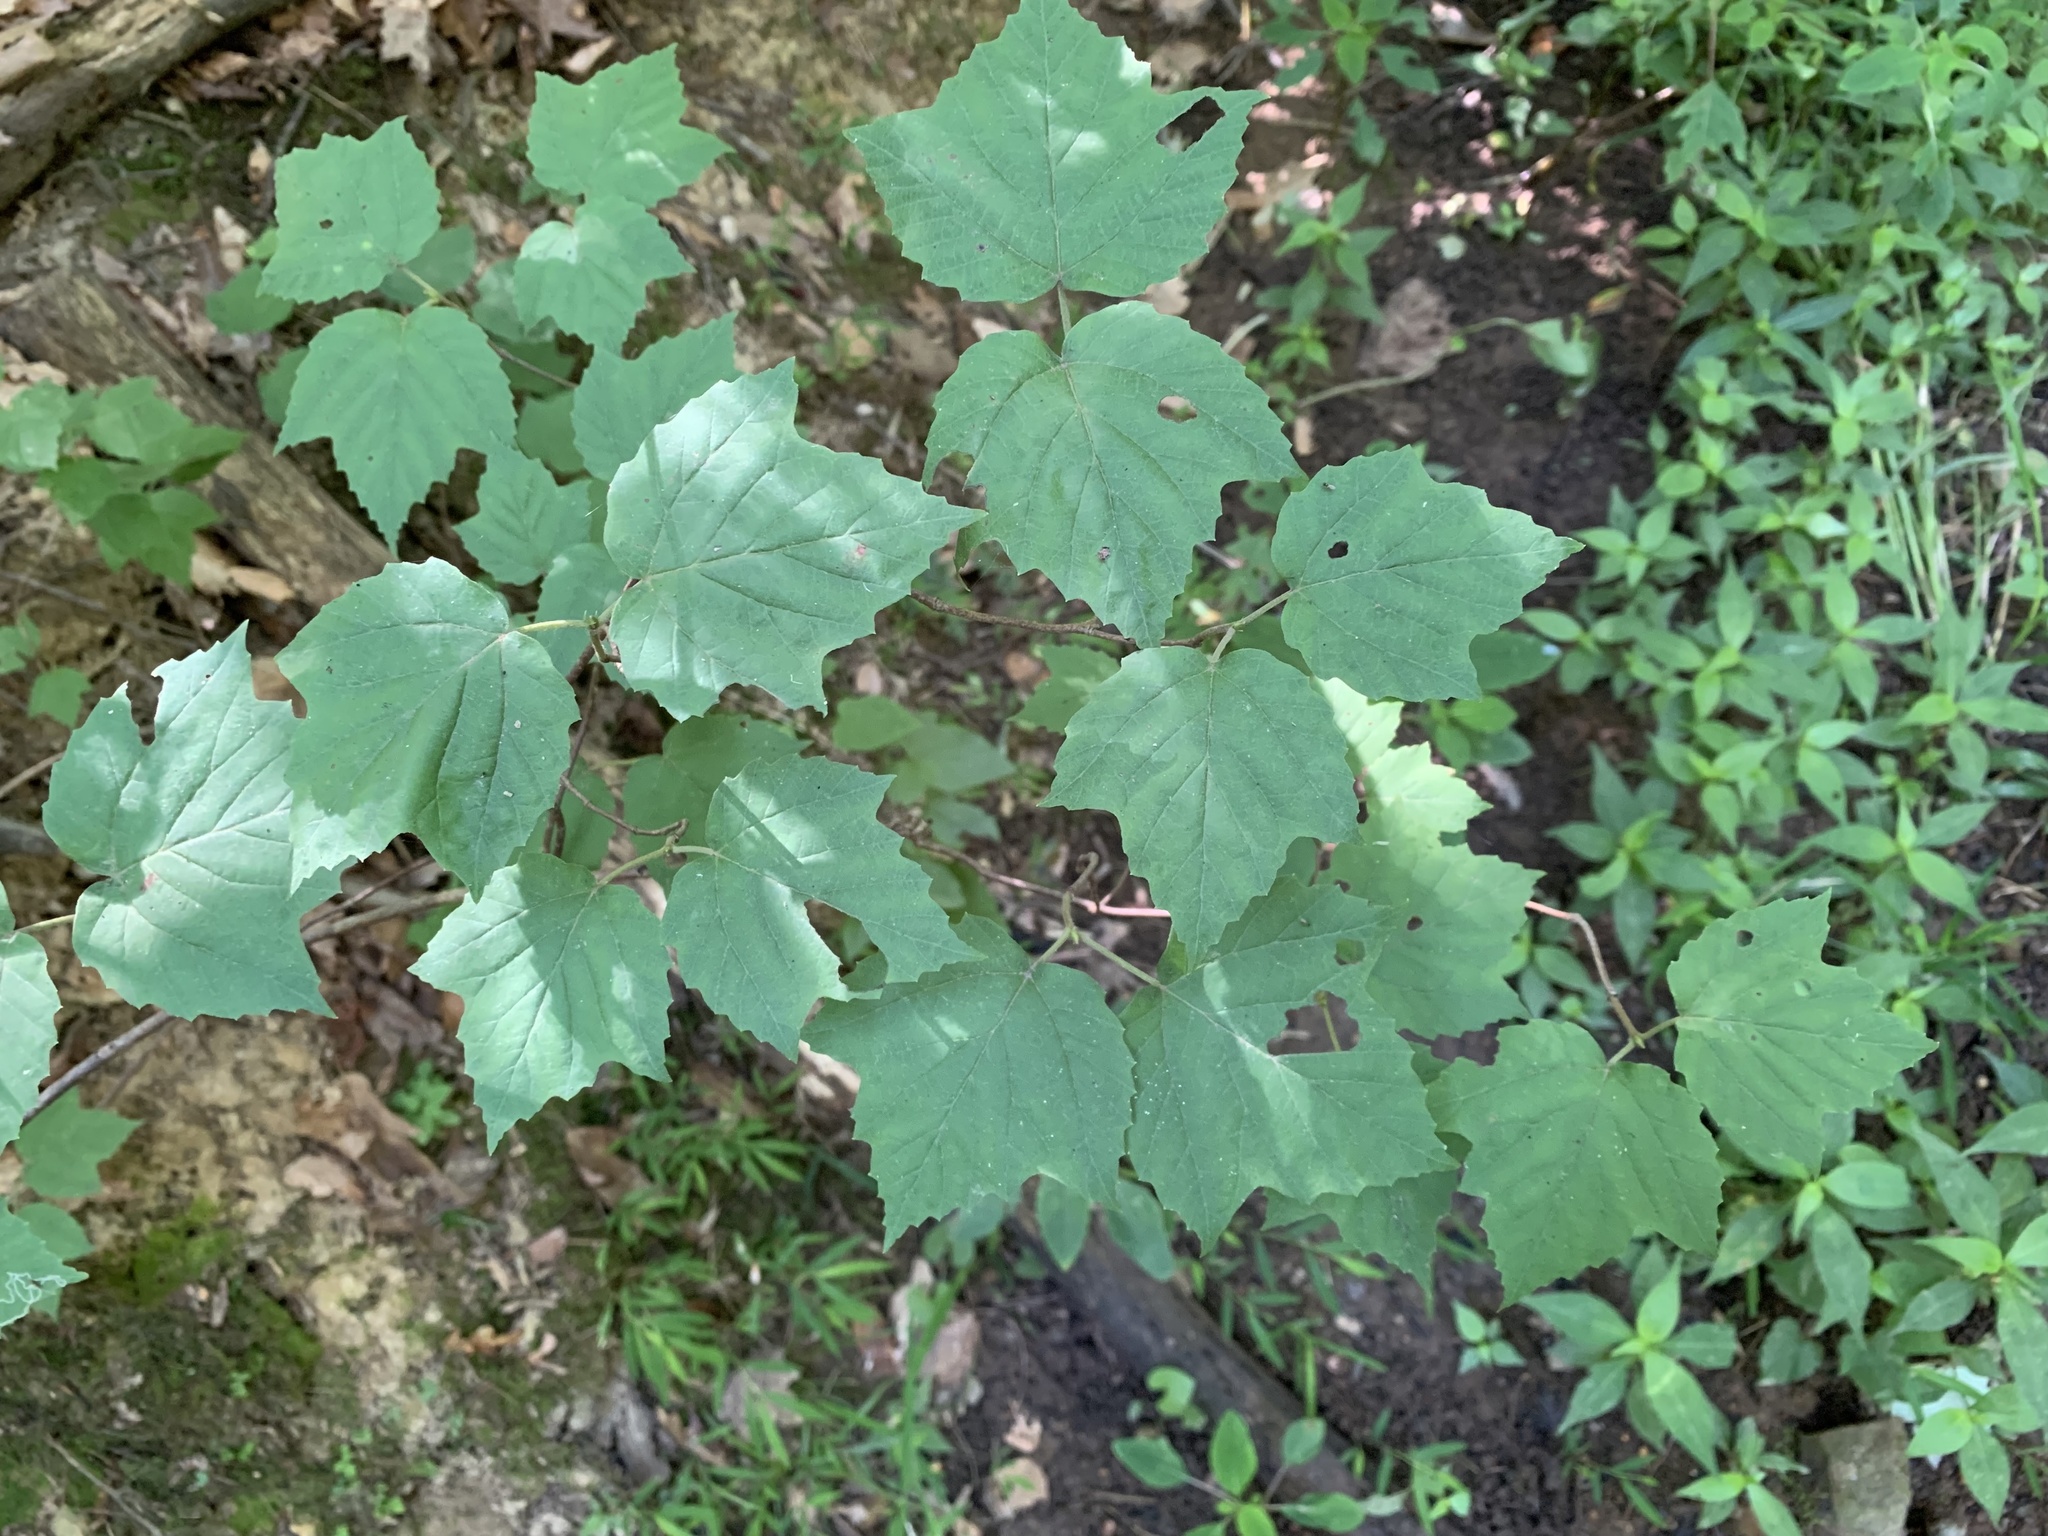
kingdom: Plantae
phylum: Tracheophyta
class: Magnoliopsida
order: Dipsacales
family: Viburnaceae
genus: Viburnum
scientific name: Viburnum acerifolium
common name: Dockmackie
